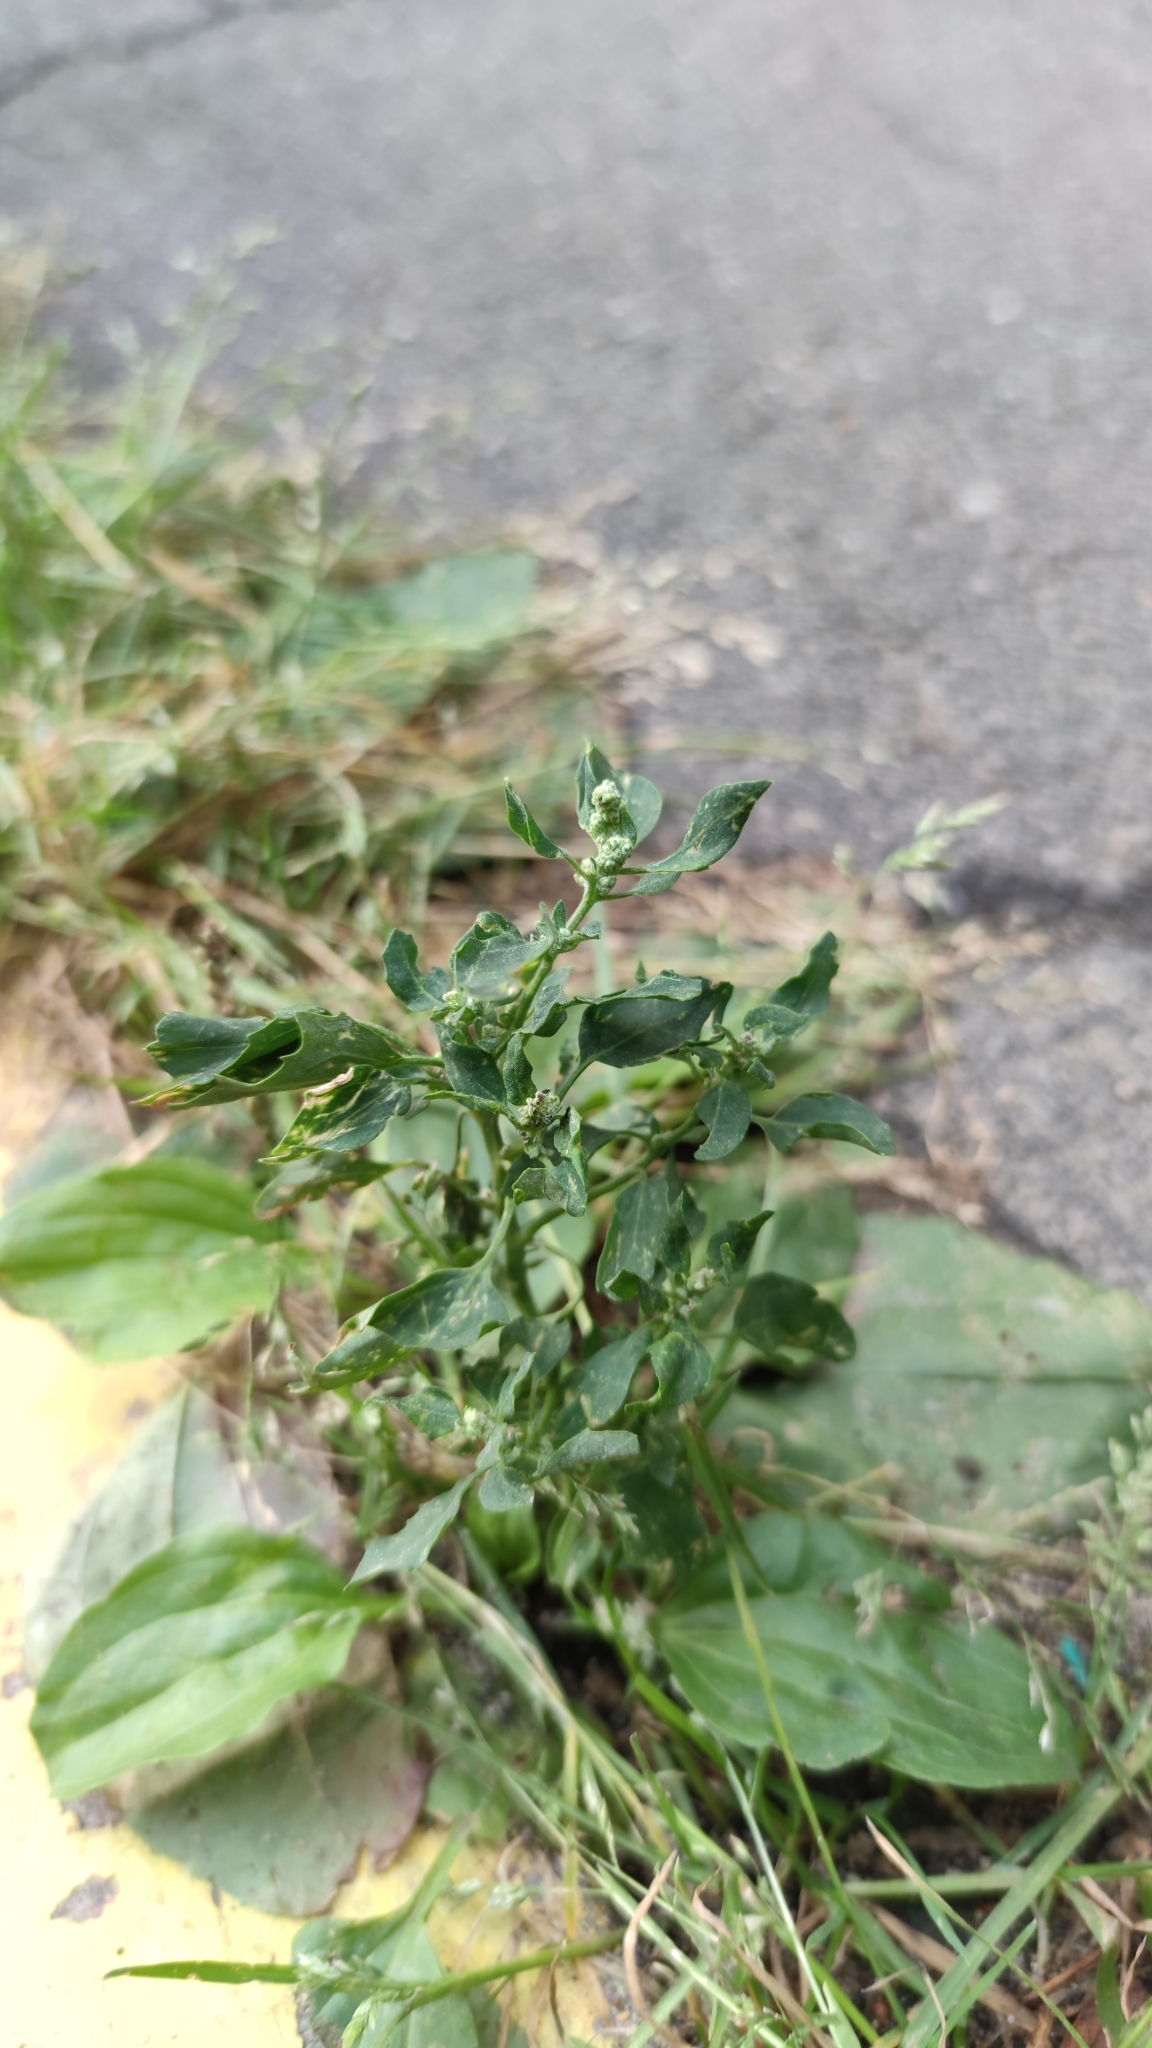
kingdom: Plantae
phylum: Tracheophyta
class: Magnoliopsida
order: Caryophyllales
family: Amaranthaceae
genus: Chenopodium
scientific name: Chenopodium album
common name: Fat-hen
